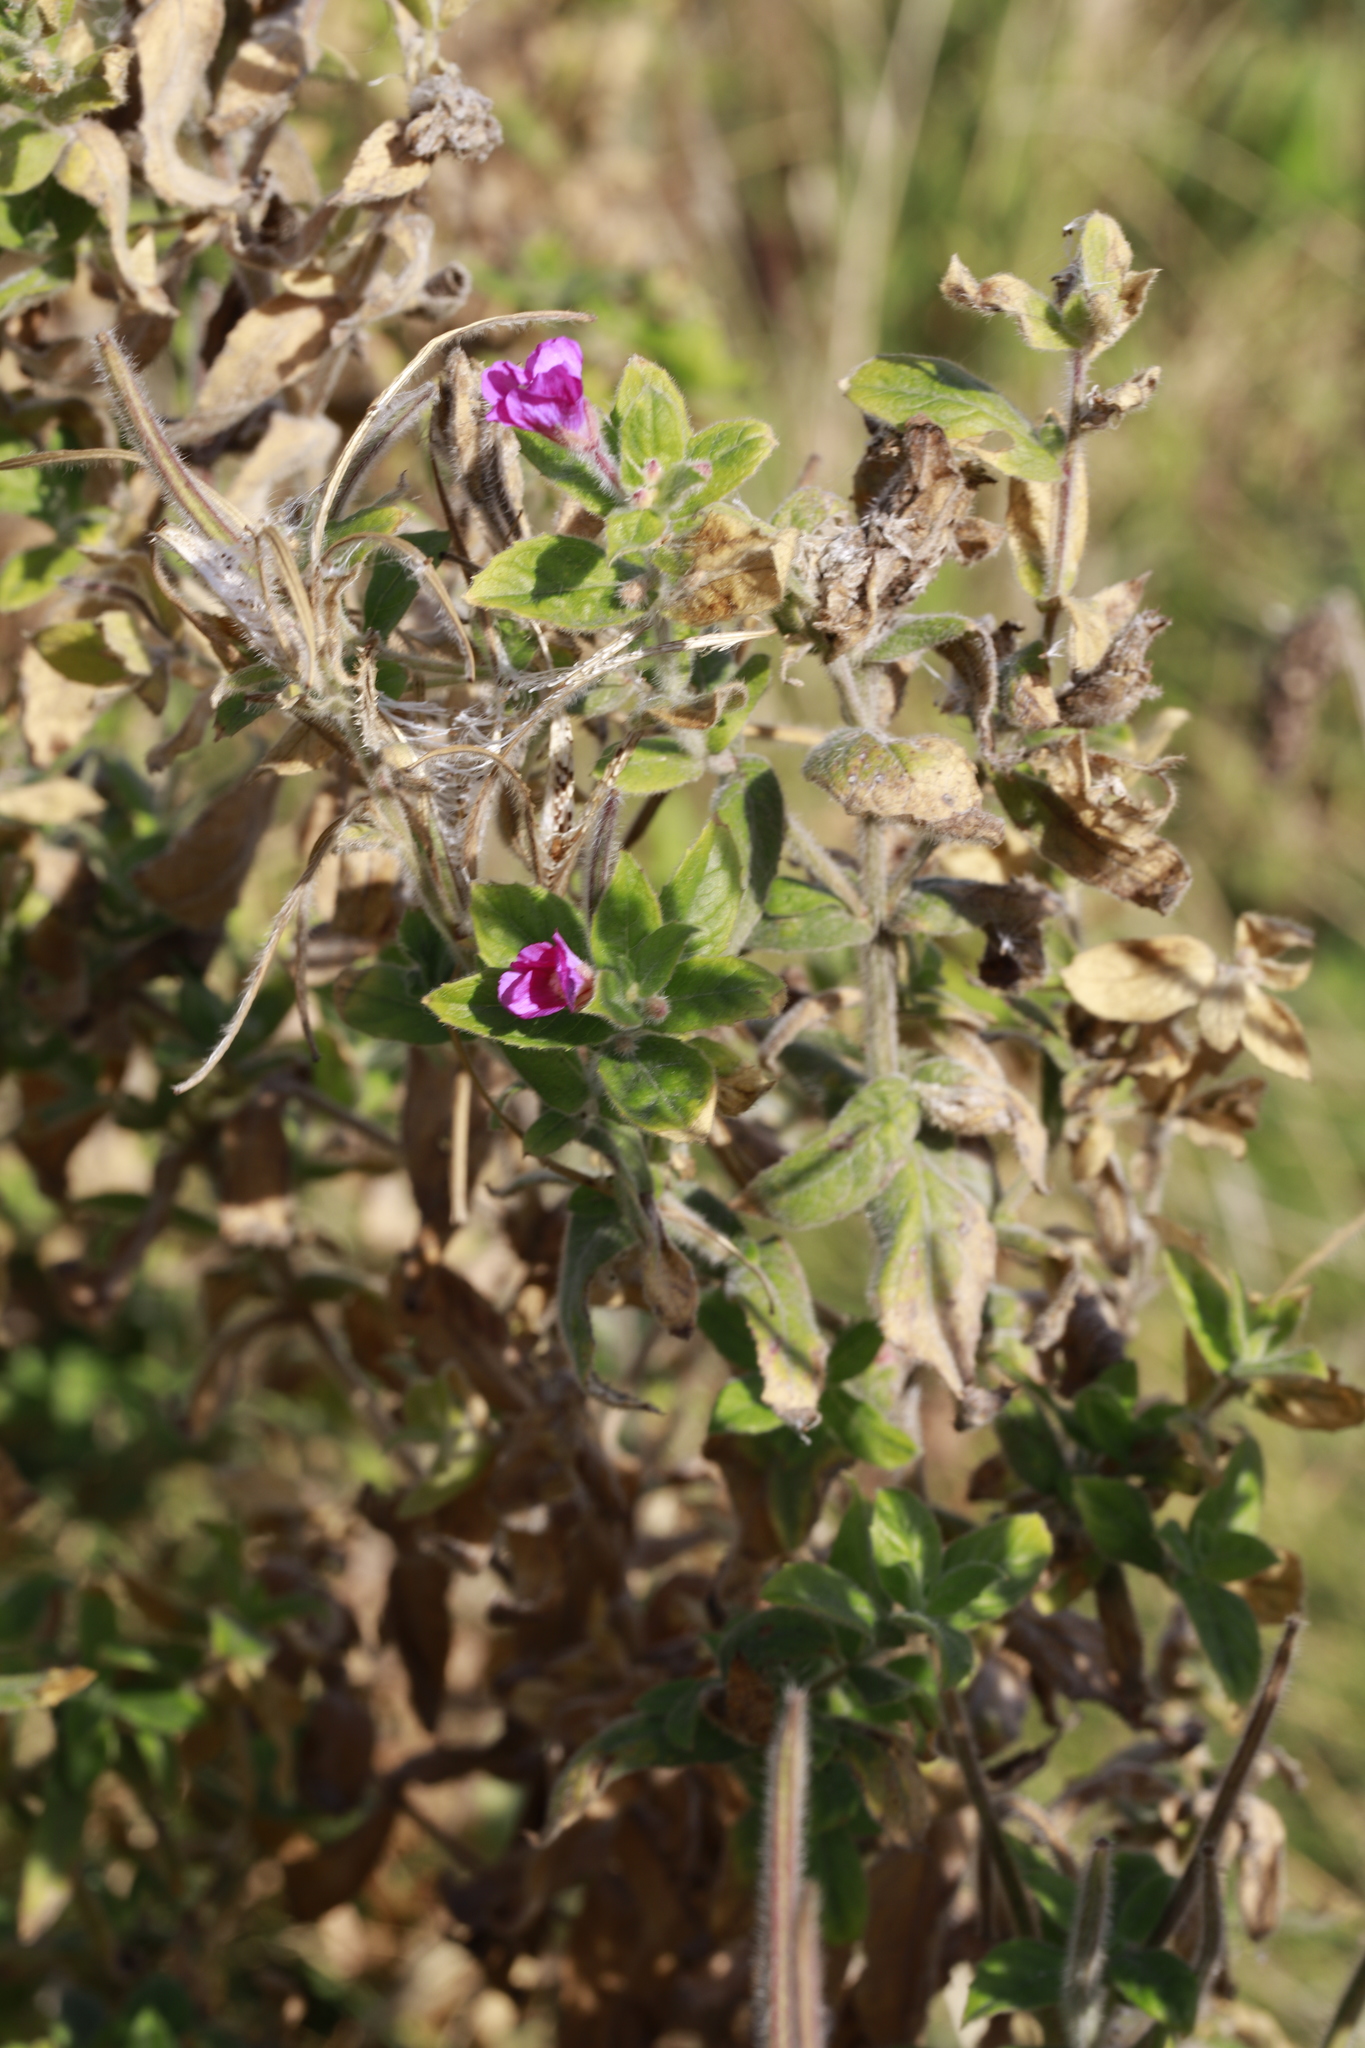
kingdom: Plantae
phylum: Tracheophyta
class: Magnoliopsida
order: Myrtales
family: Onagraceae
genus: Epilobium
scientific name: Epilobium hirsutum
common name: Great willowherb
